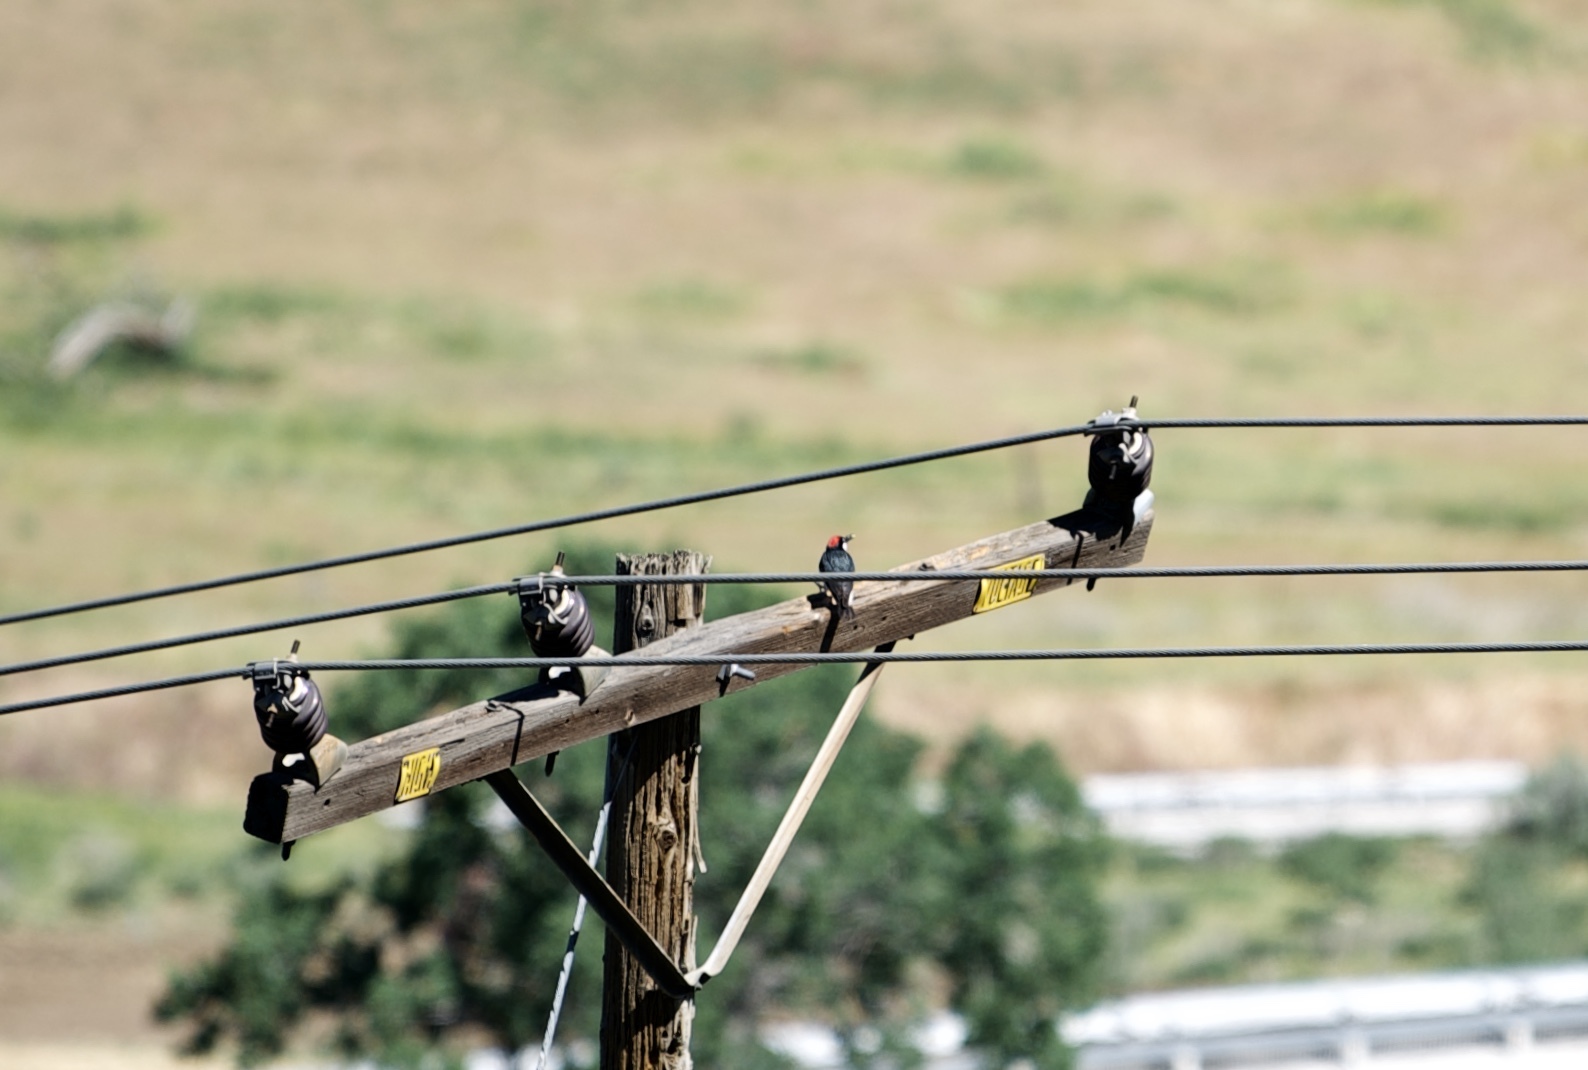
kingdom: Animalia
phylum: Chordata
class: Aves
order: Piciformes
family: Picidae
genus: Melanerpes
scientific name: Melanerpes formicivorus
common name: Acorn woodpecker
